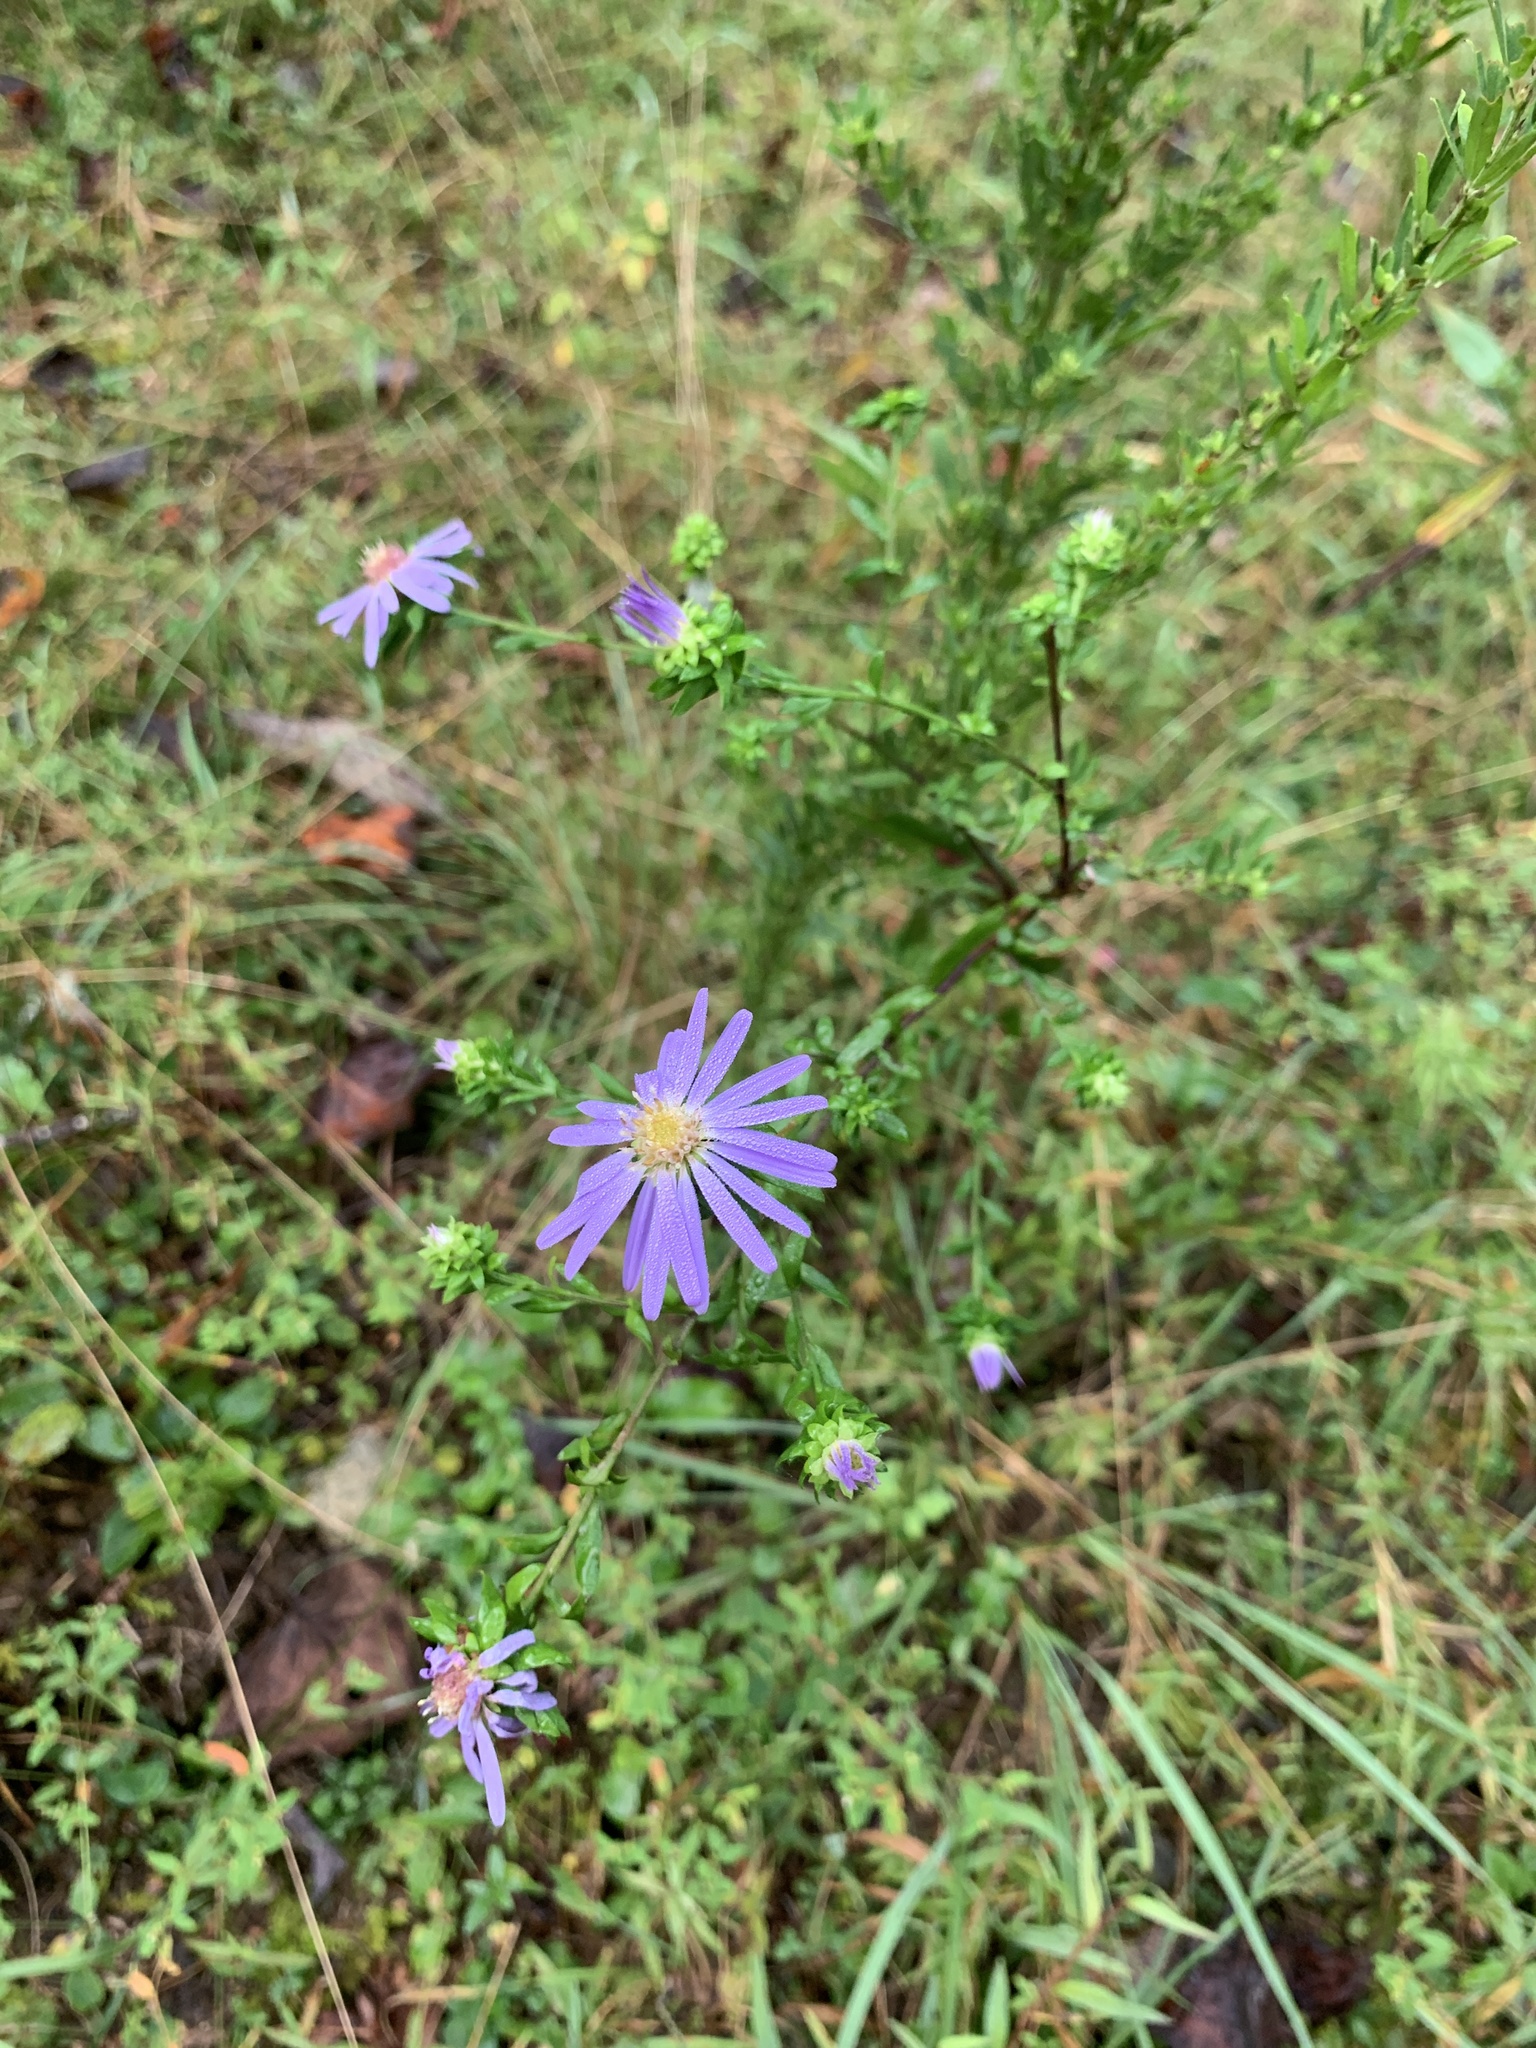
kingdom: Plantae
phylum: Tracheophyta
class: Magnoliopsida
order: Asterales
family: Asteraceae
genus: Symphyotrichum
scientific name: Symphyotrichum retroflexum
